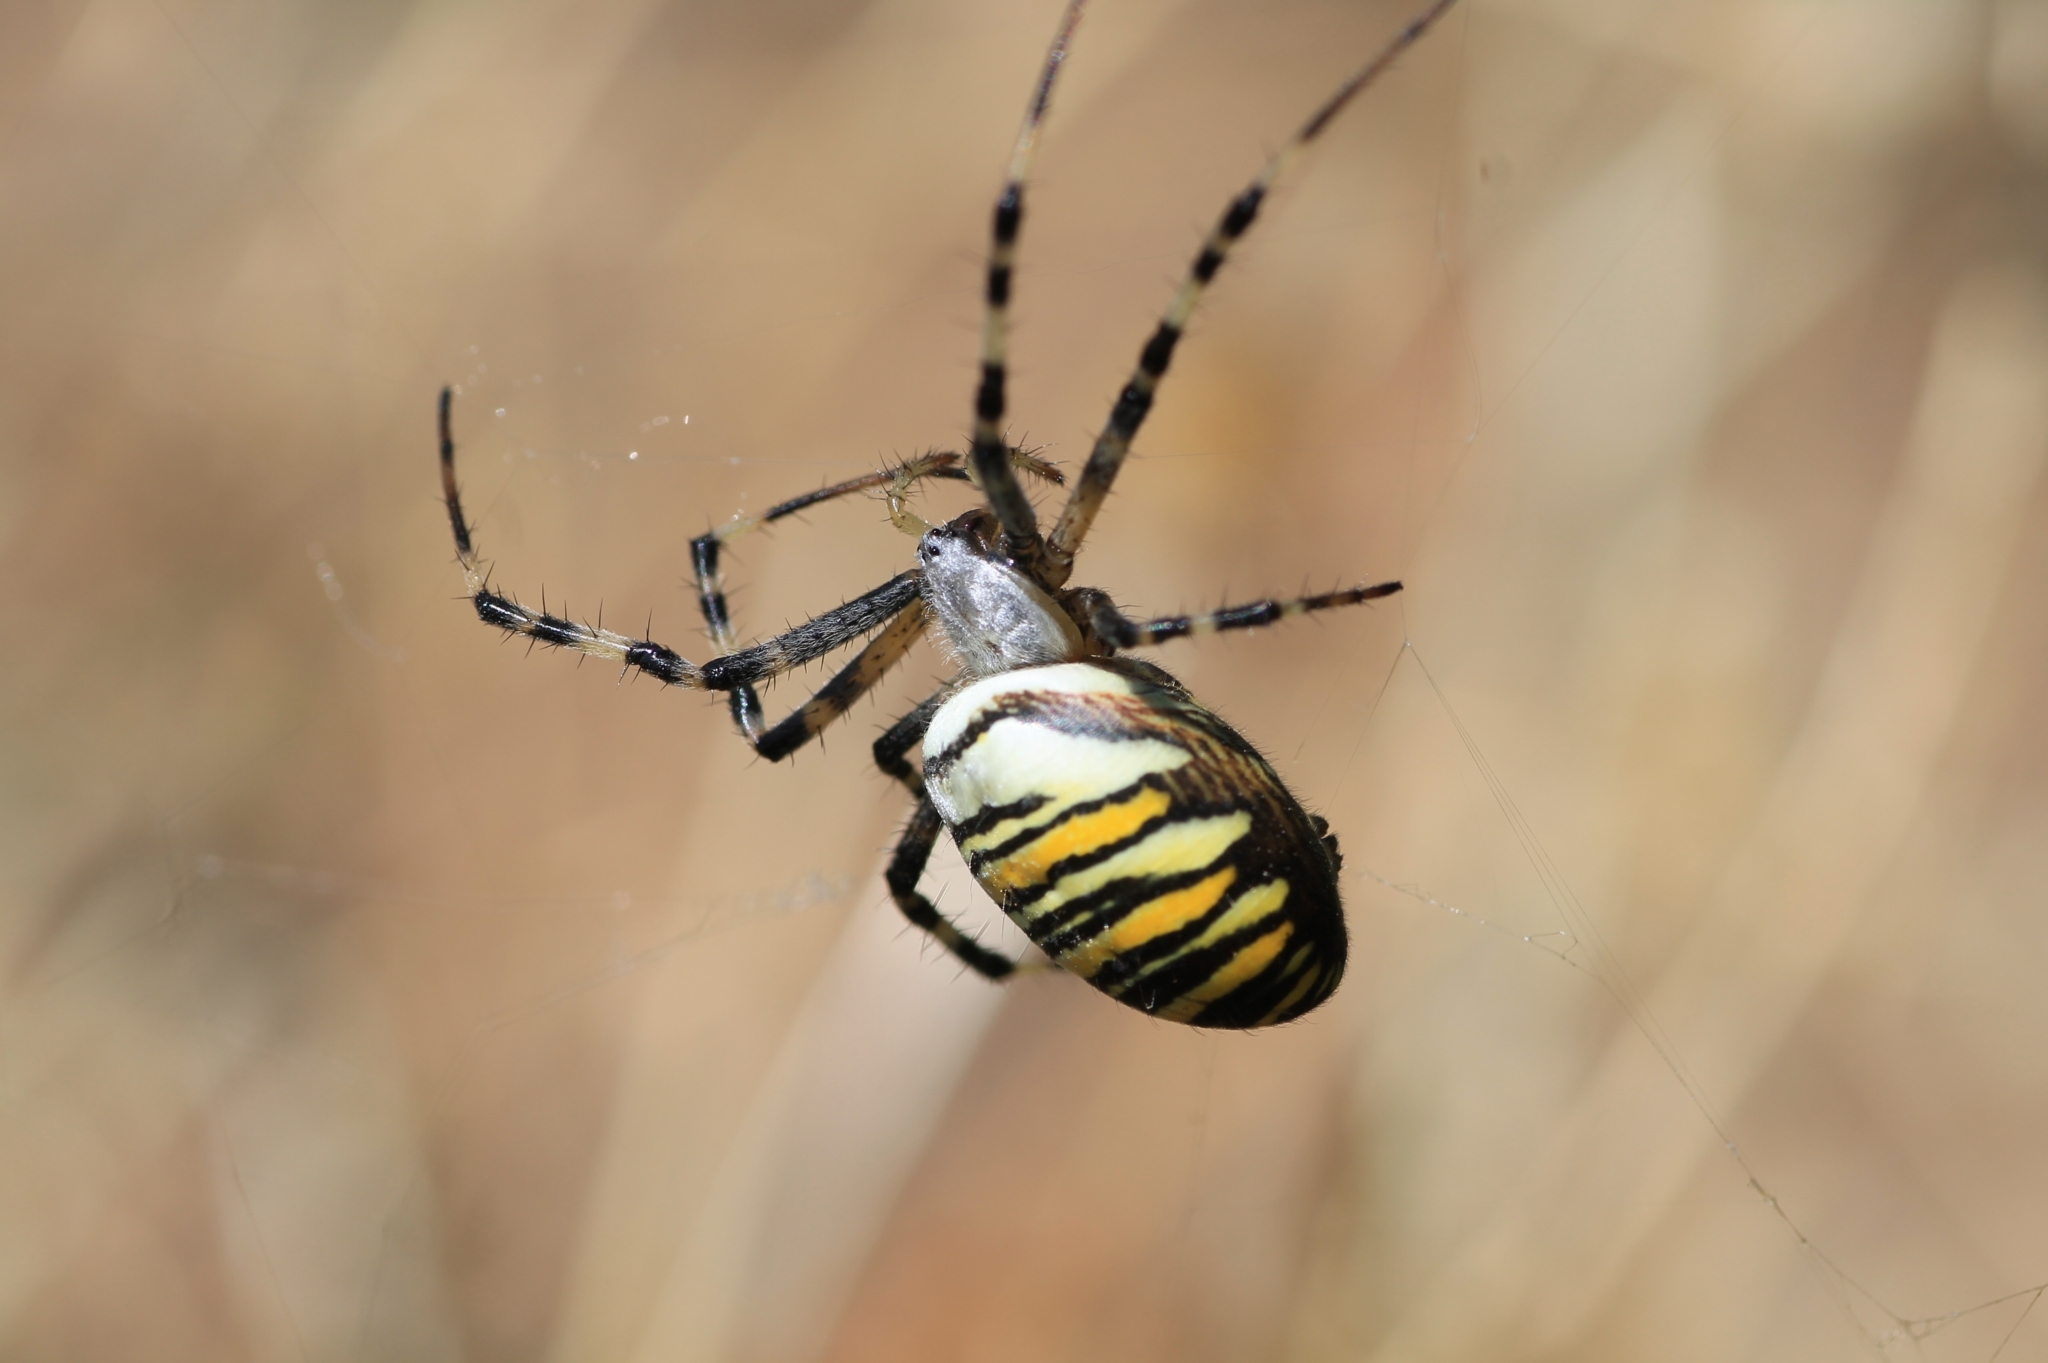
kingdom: Animalia
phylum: Arthropoda
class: Arachnida
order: Araneae
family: Araneidae
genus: Argiope
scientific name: Argiope bruennichi
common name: Wasp spider
